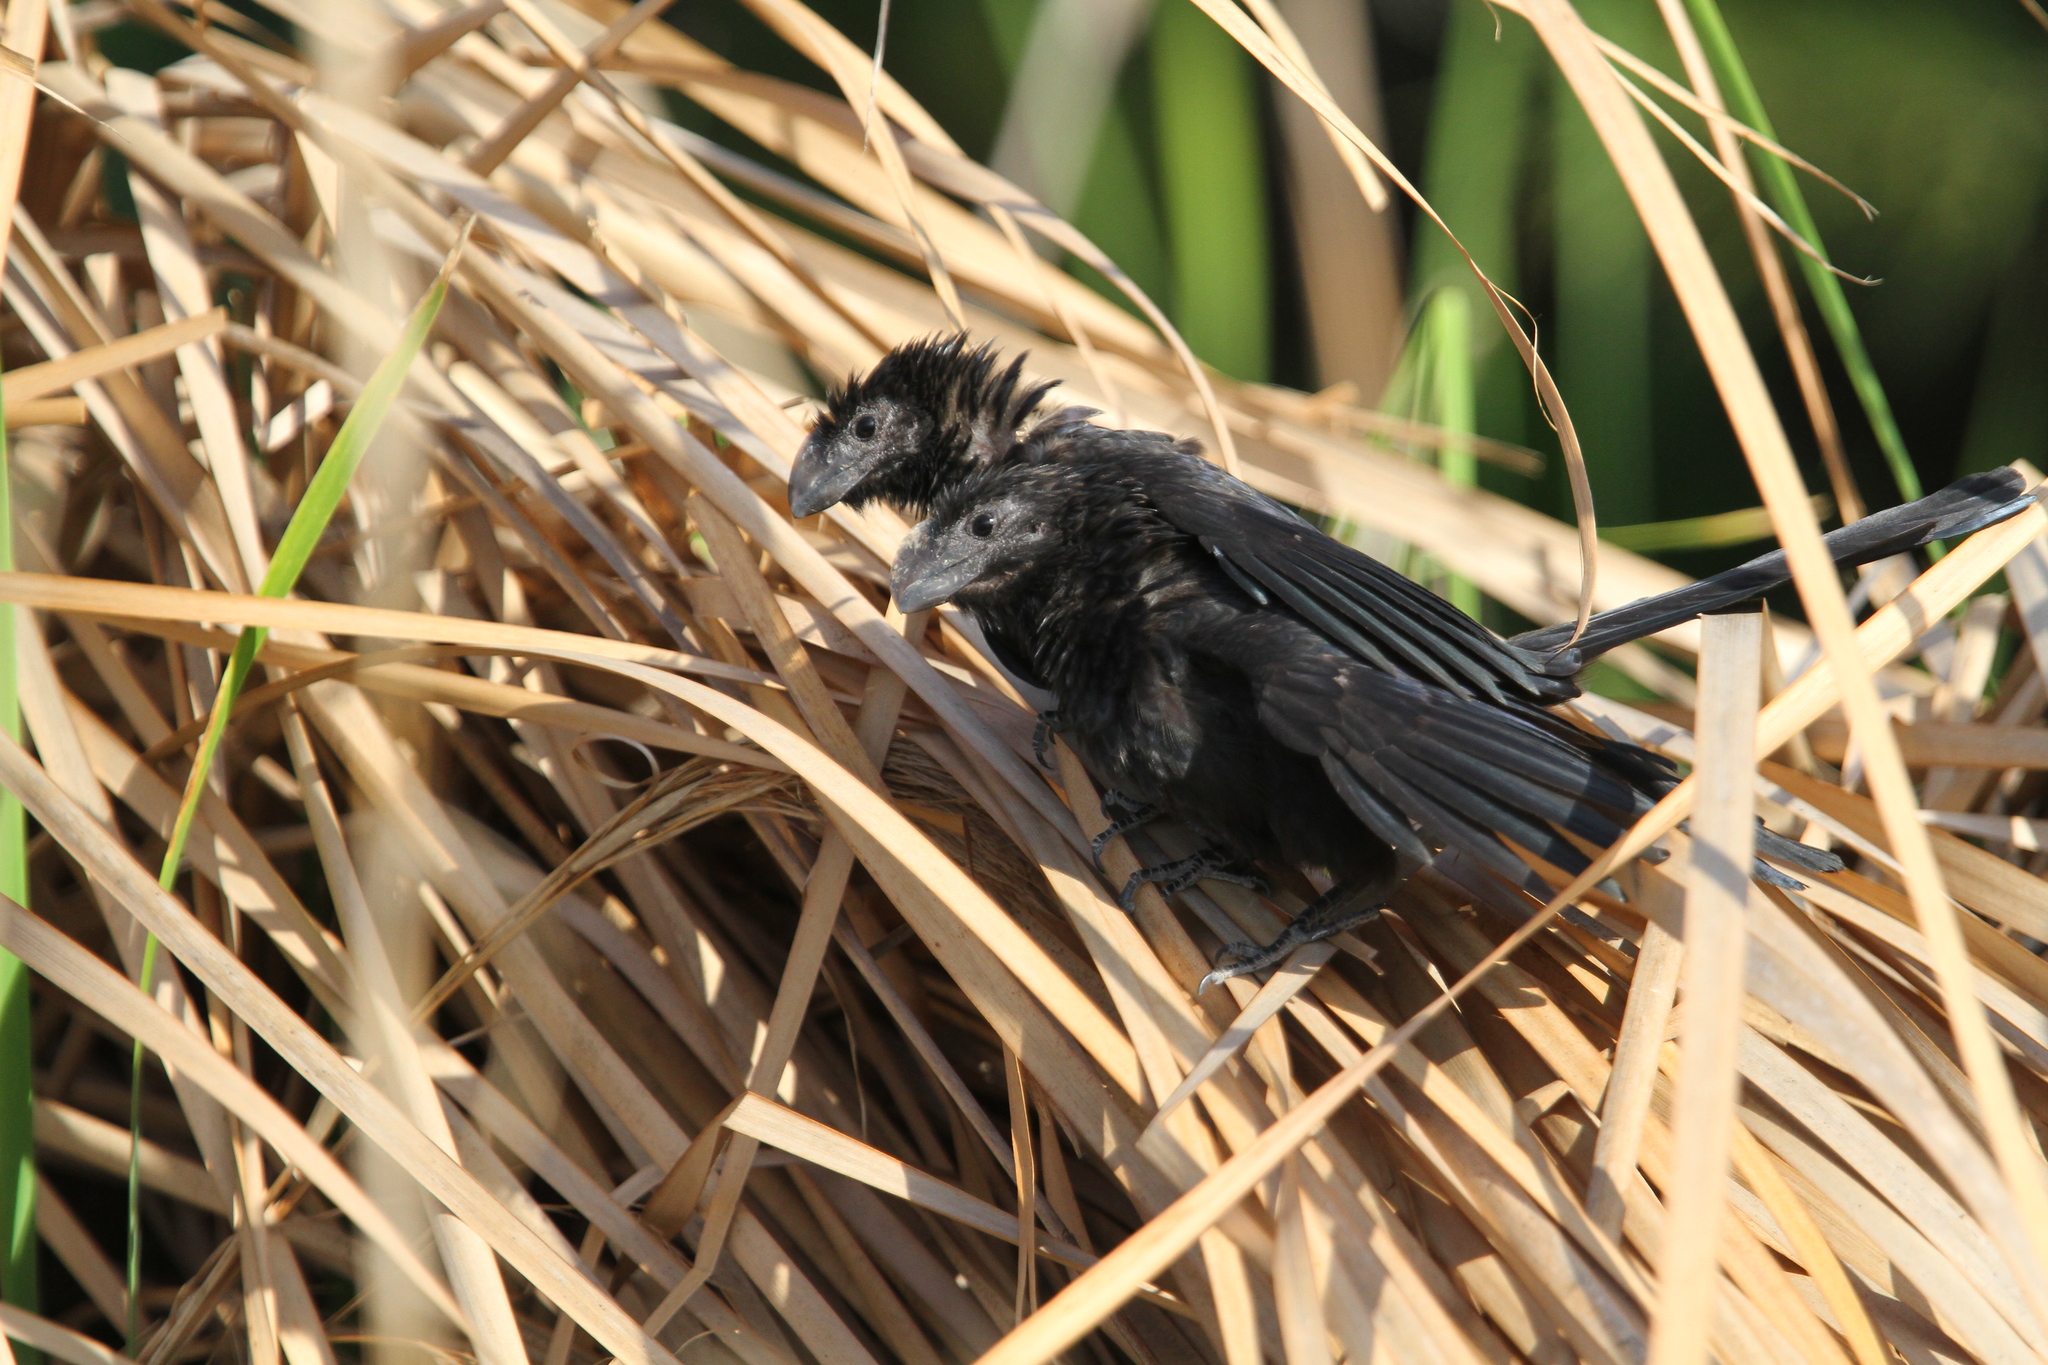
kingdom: Animalia
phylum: Chordata
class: Aves
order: Cuculiformes
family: Cuculidae
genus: Crotophaga
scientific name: Crotophaga ani
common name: Smooth-billed ani
